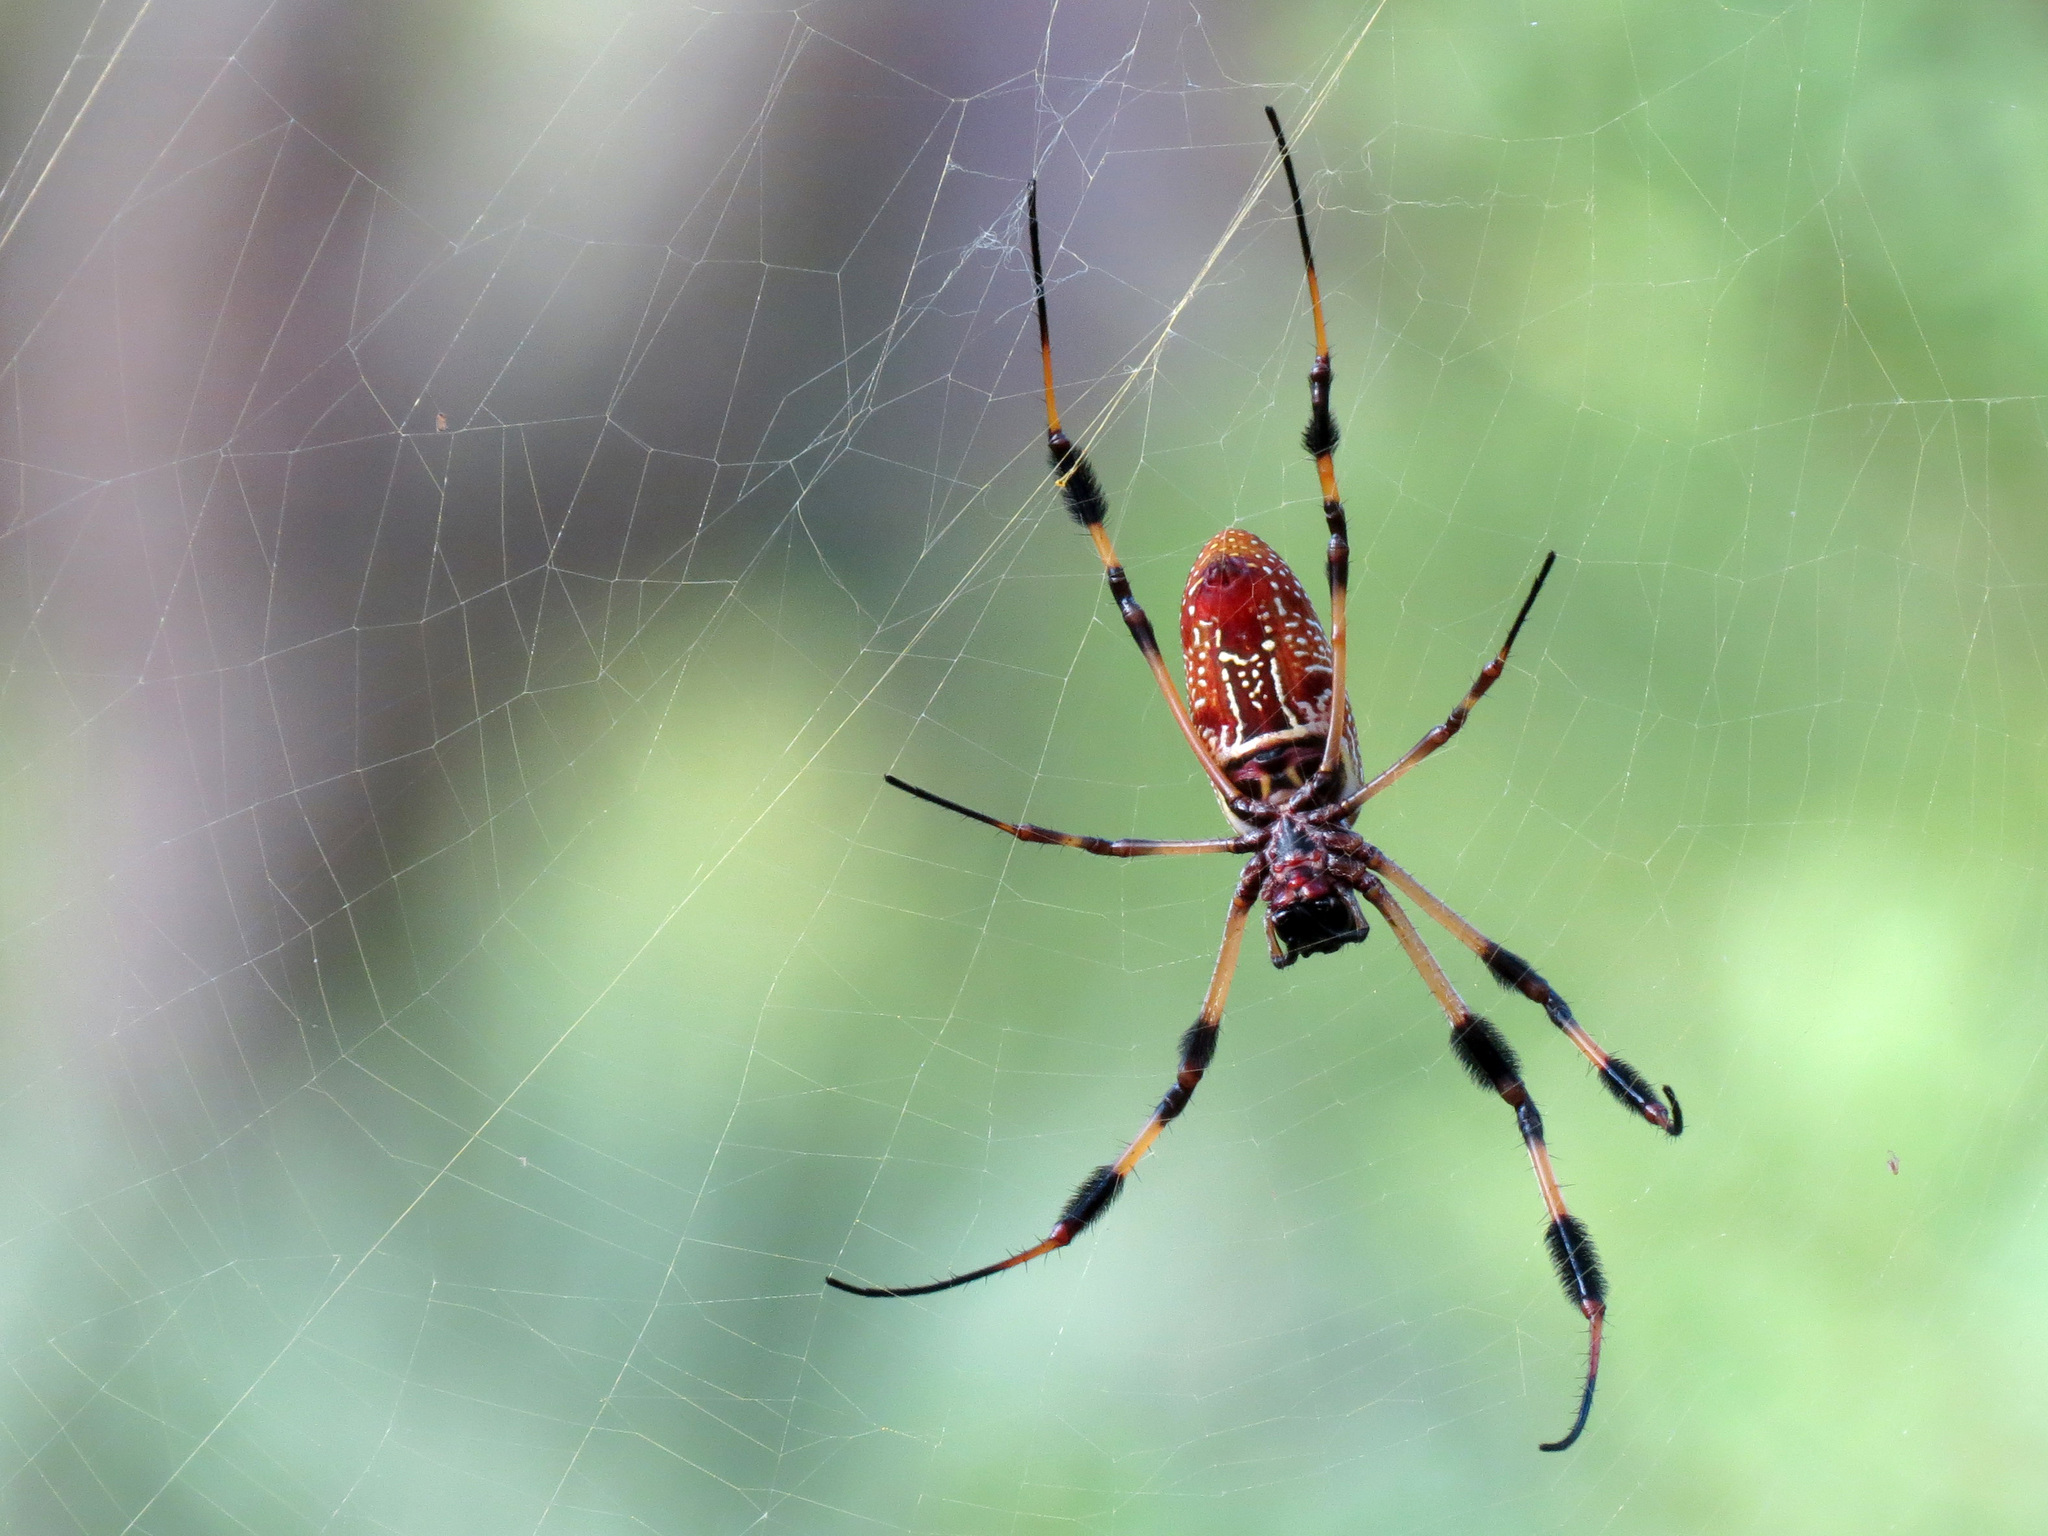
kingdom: Animalia
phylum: Arthropoda
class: Arachnida
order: Araneae
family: Araneidae
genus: Trichonephila
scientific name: Trichonephila clavipes
